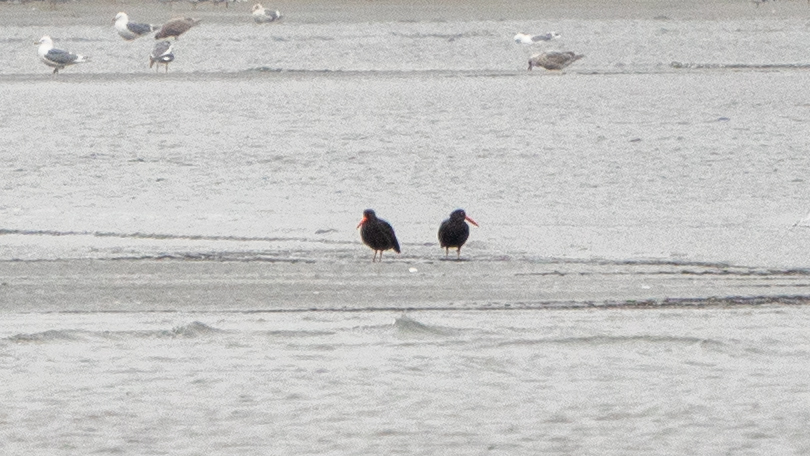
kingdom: Animalia
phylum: Chordata
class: Aves
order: Charadriiformes
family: Haematopodidae
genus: Haematopus
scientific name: Haematopus bachmani
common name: Black oystercatcher
